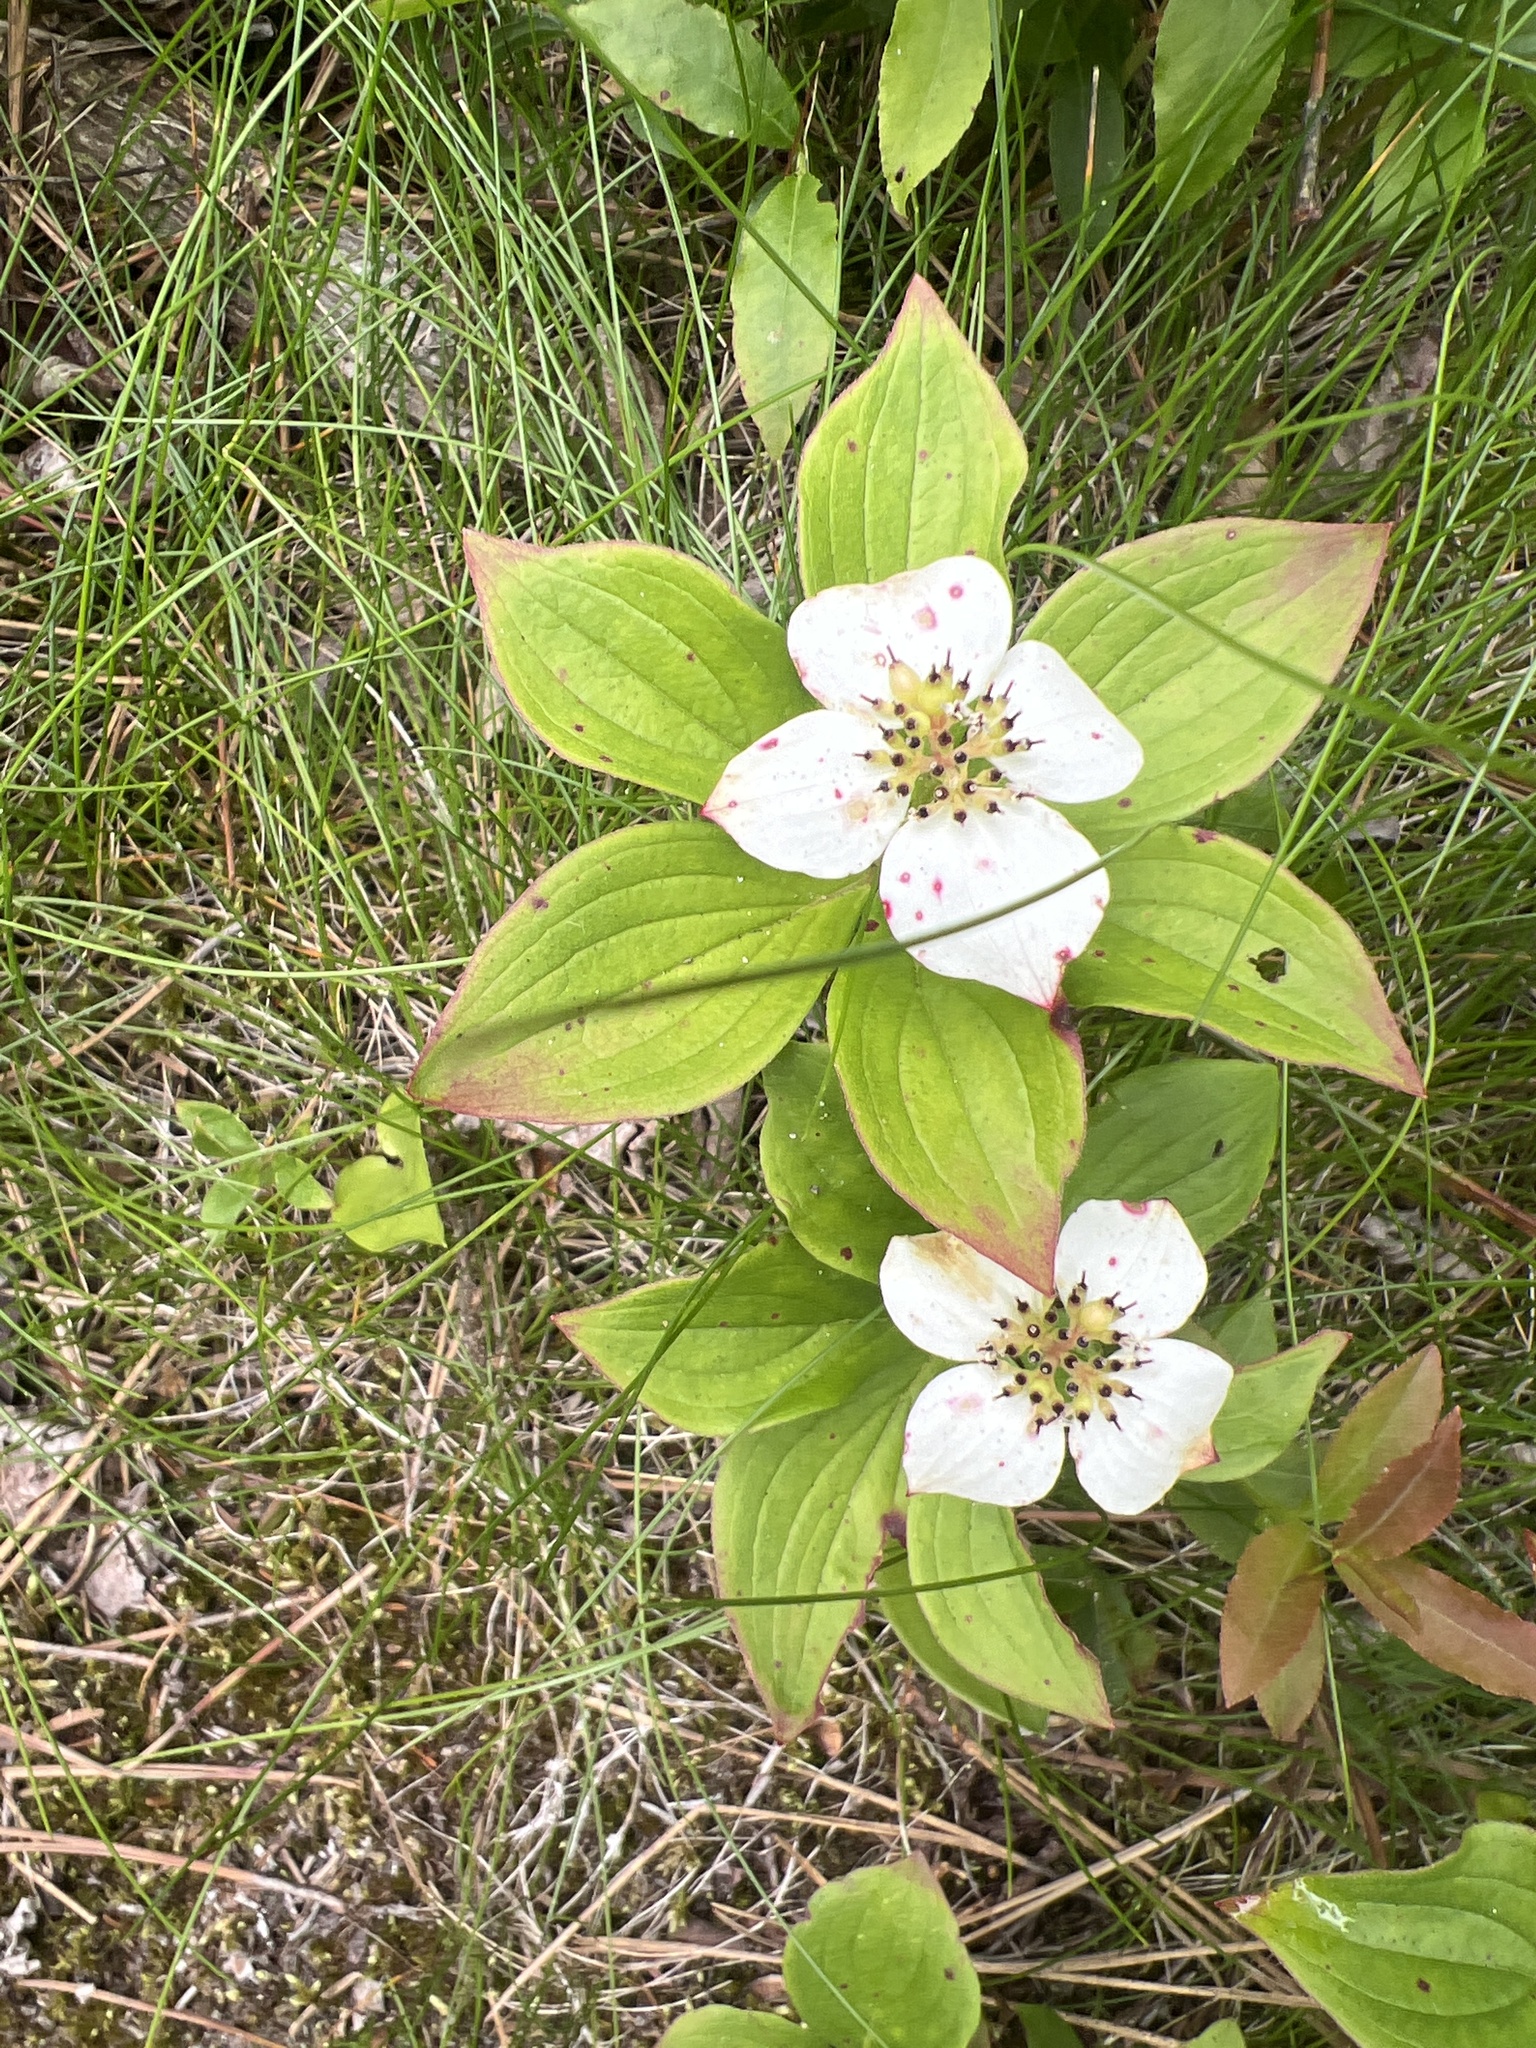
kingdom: Plantae
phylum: Tracheophyta
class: Magnoliopsida
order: Cornales
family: Cornaceae
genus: Cornus
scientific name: Cornus canadensis
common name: Creeping dogwood
